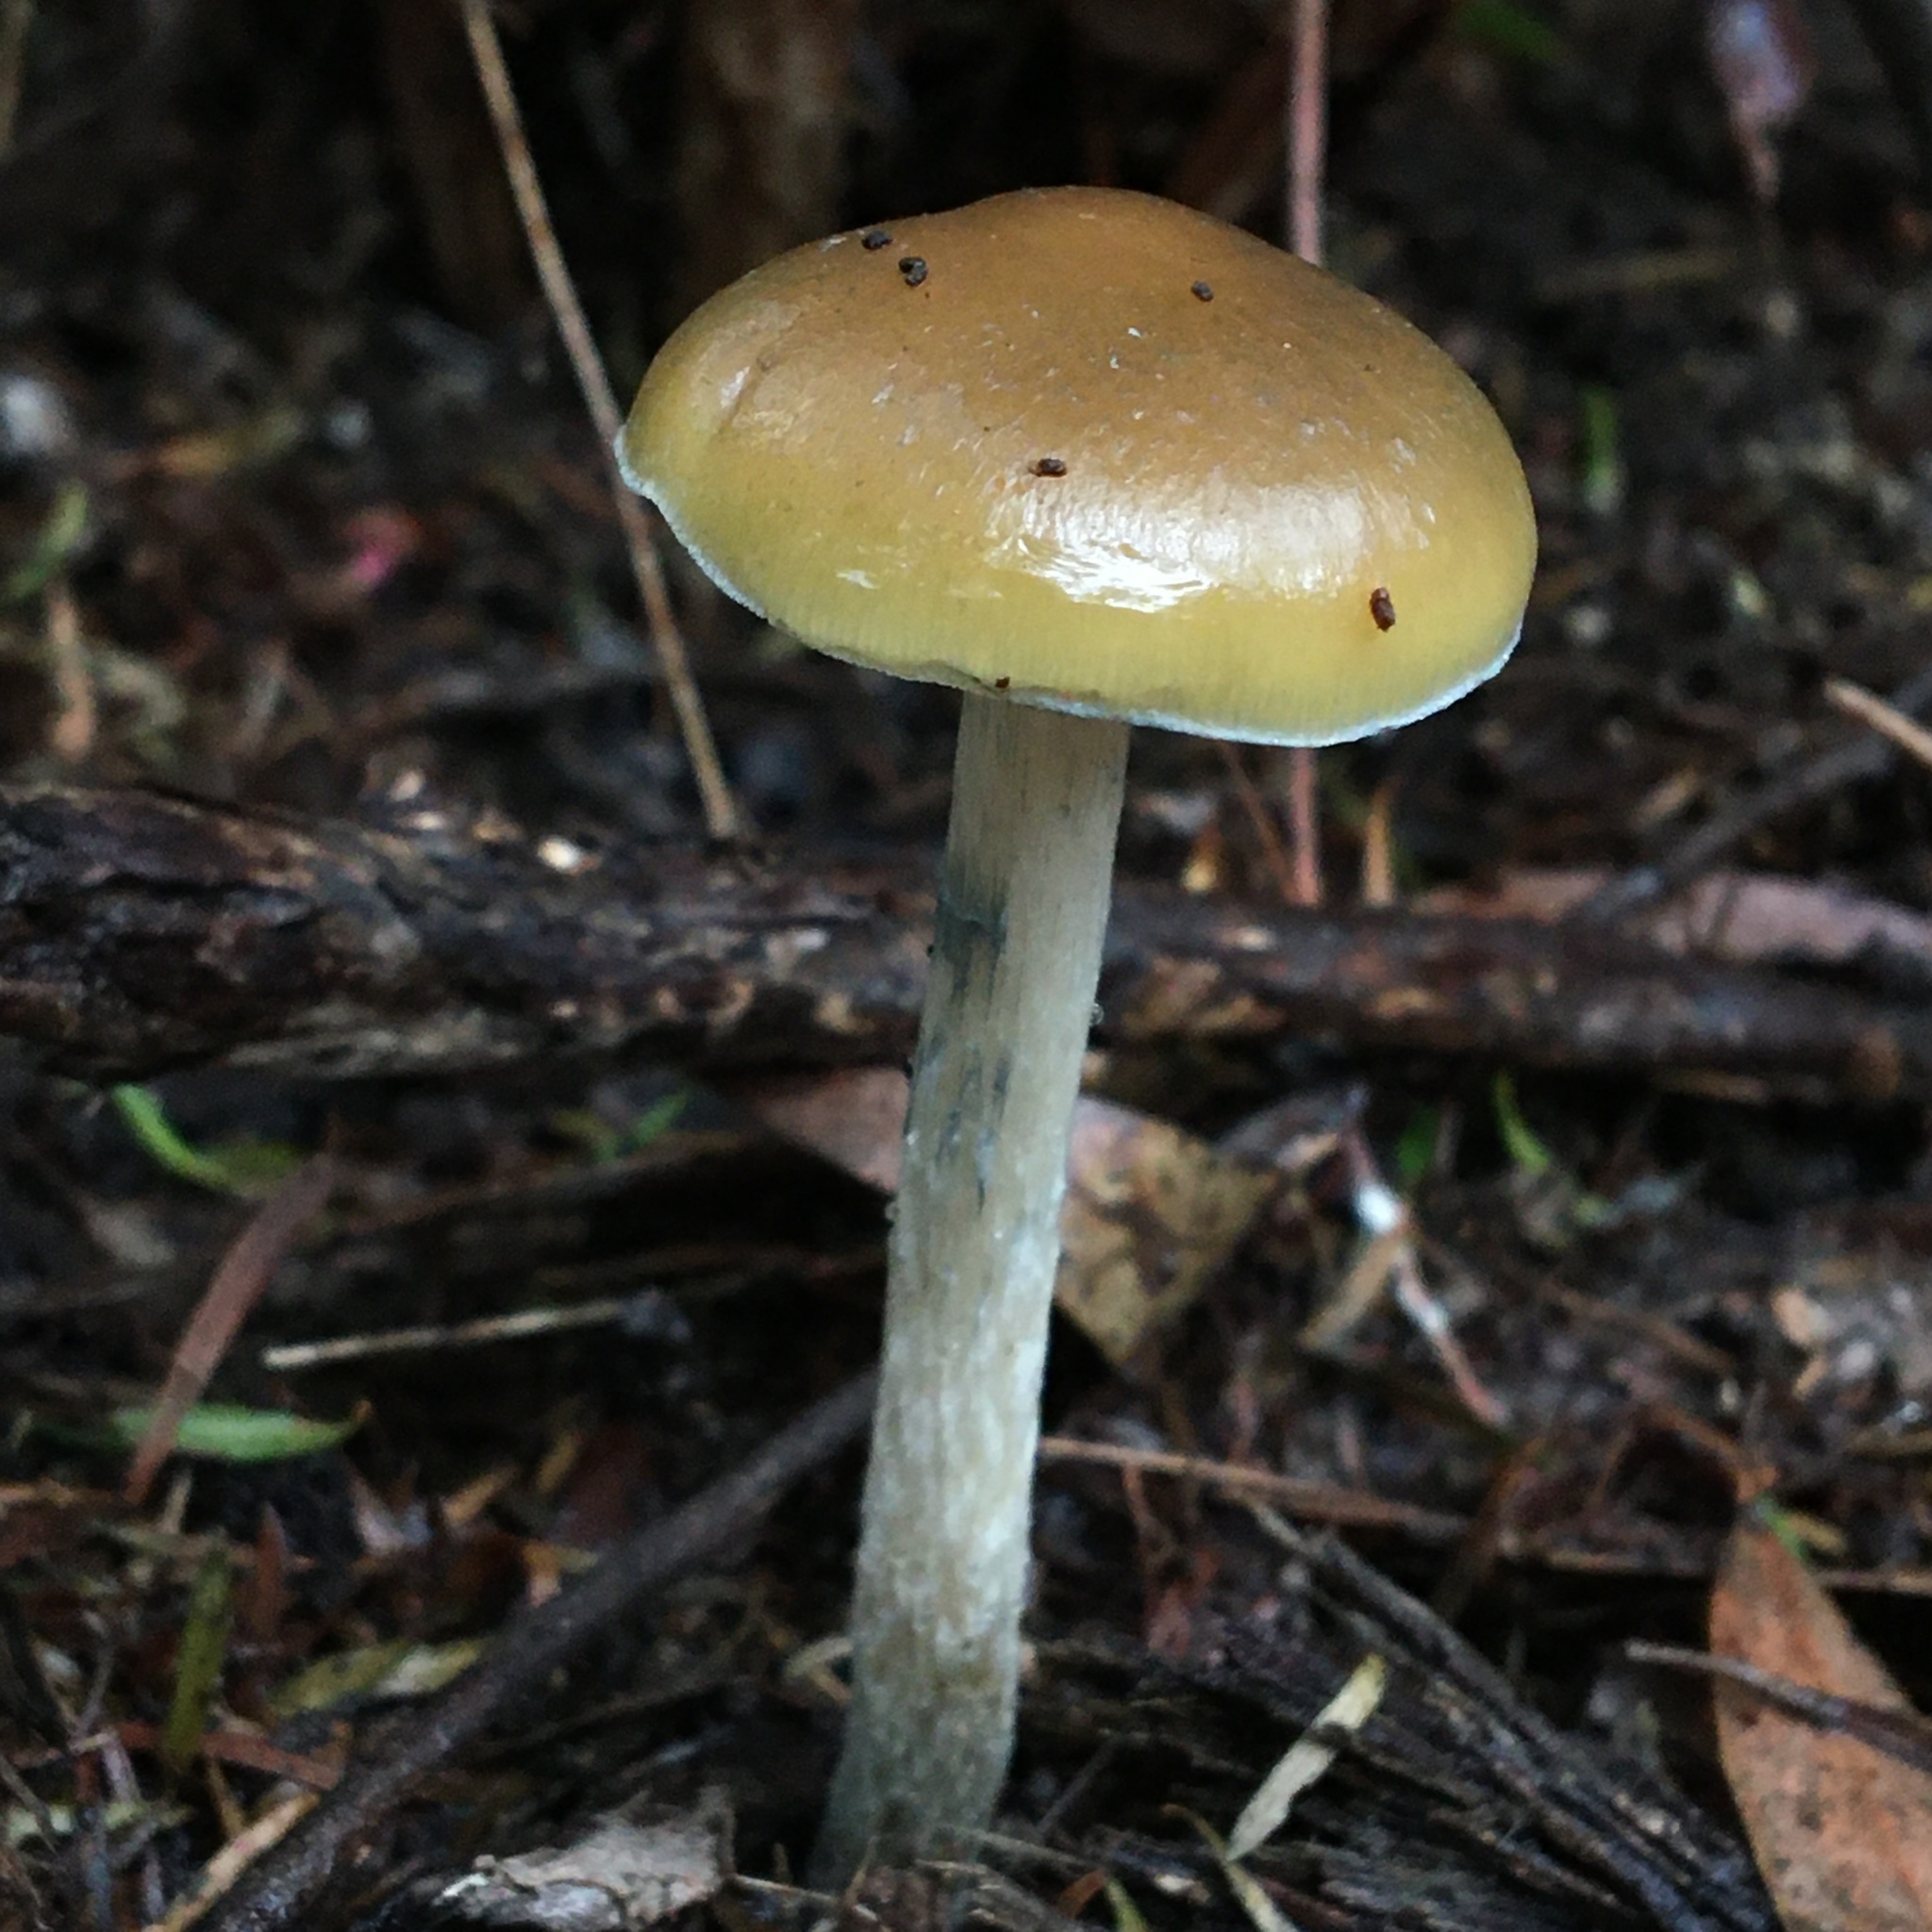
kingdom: Fungi
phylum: Basidiomycota
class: Agaricomycetes
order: Agaricales
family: Hymenogastraceae
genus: Psilocybe
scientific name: Psilocybe subaeruginosa
